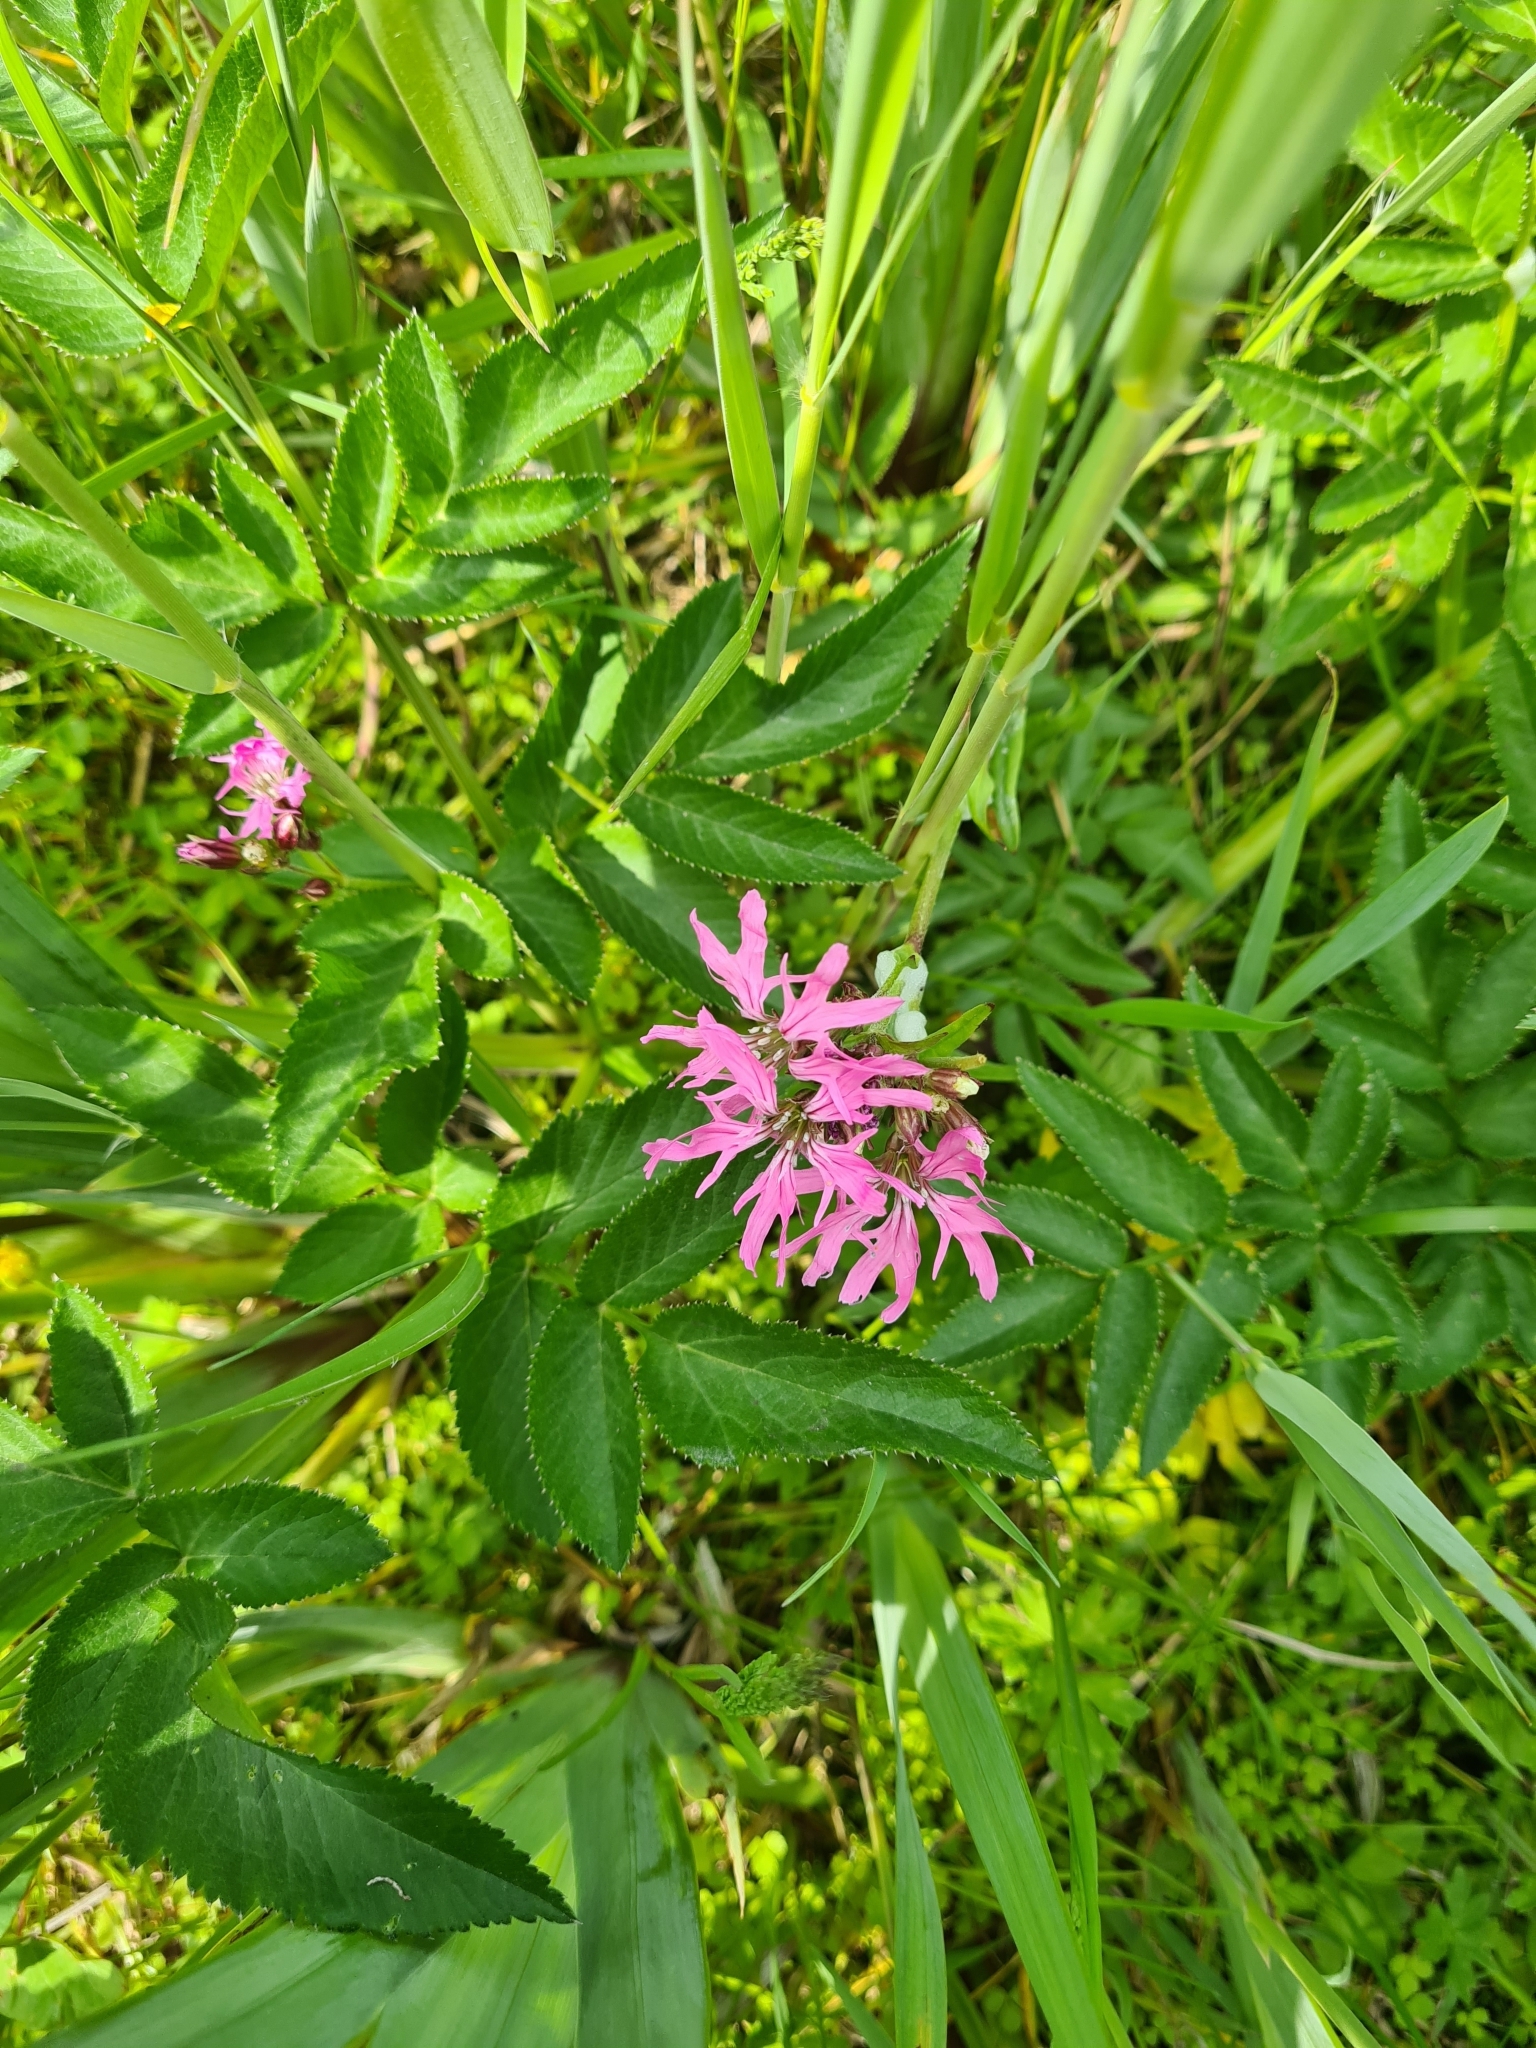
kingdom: Plantae
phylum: Tracheophyta
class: Magnoliopsida
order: Caryophyllales
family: Caryophyllaceae
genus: Silene
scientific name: Silene flos-cuculi
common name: Ragged-robin
